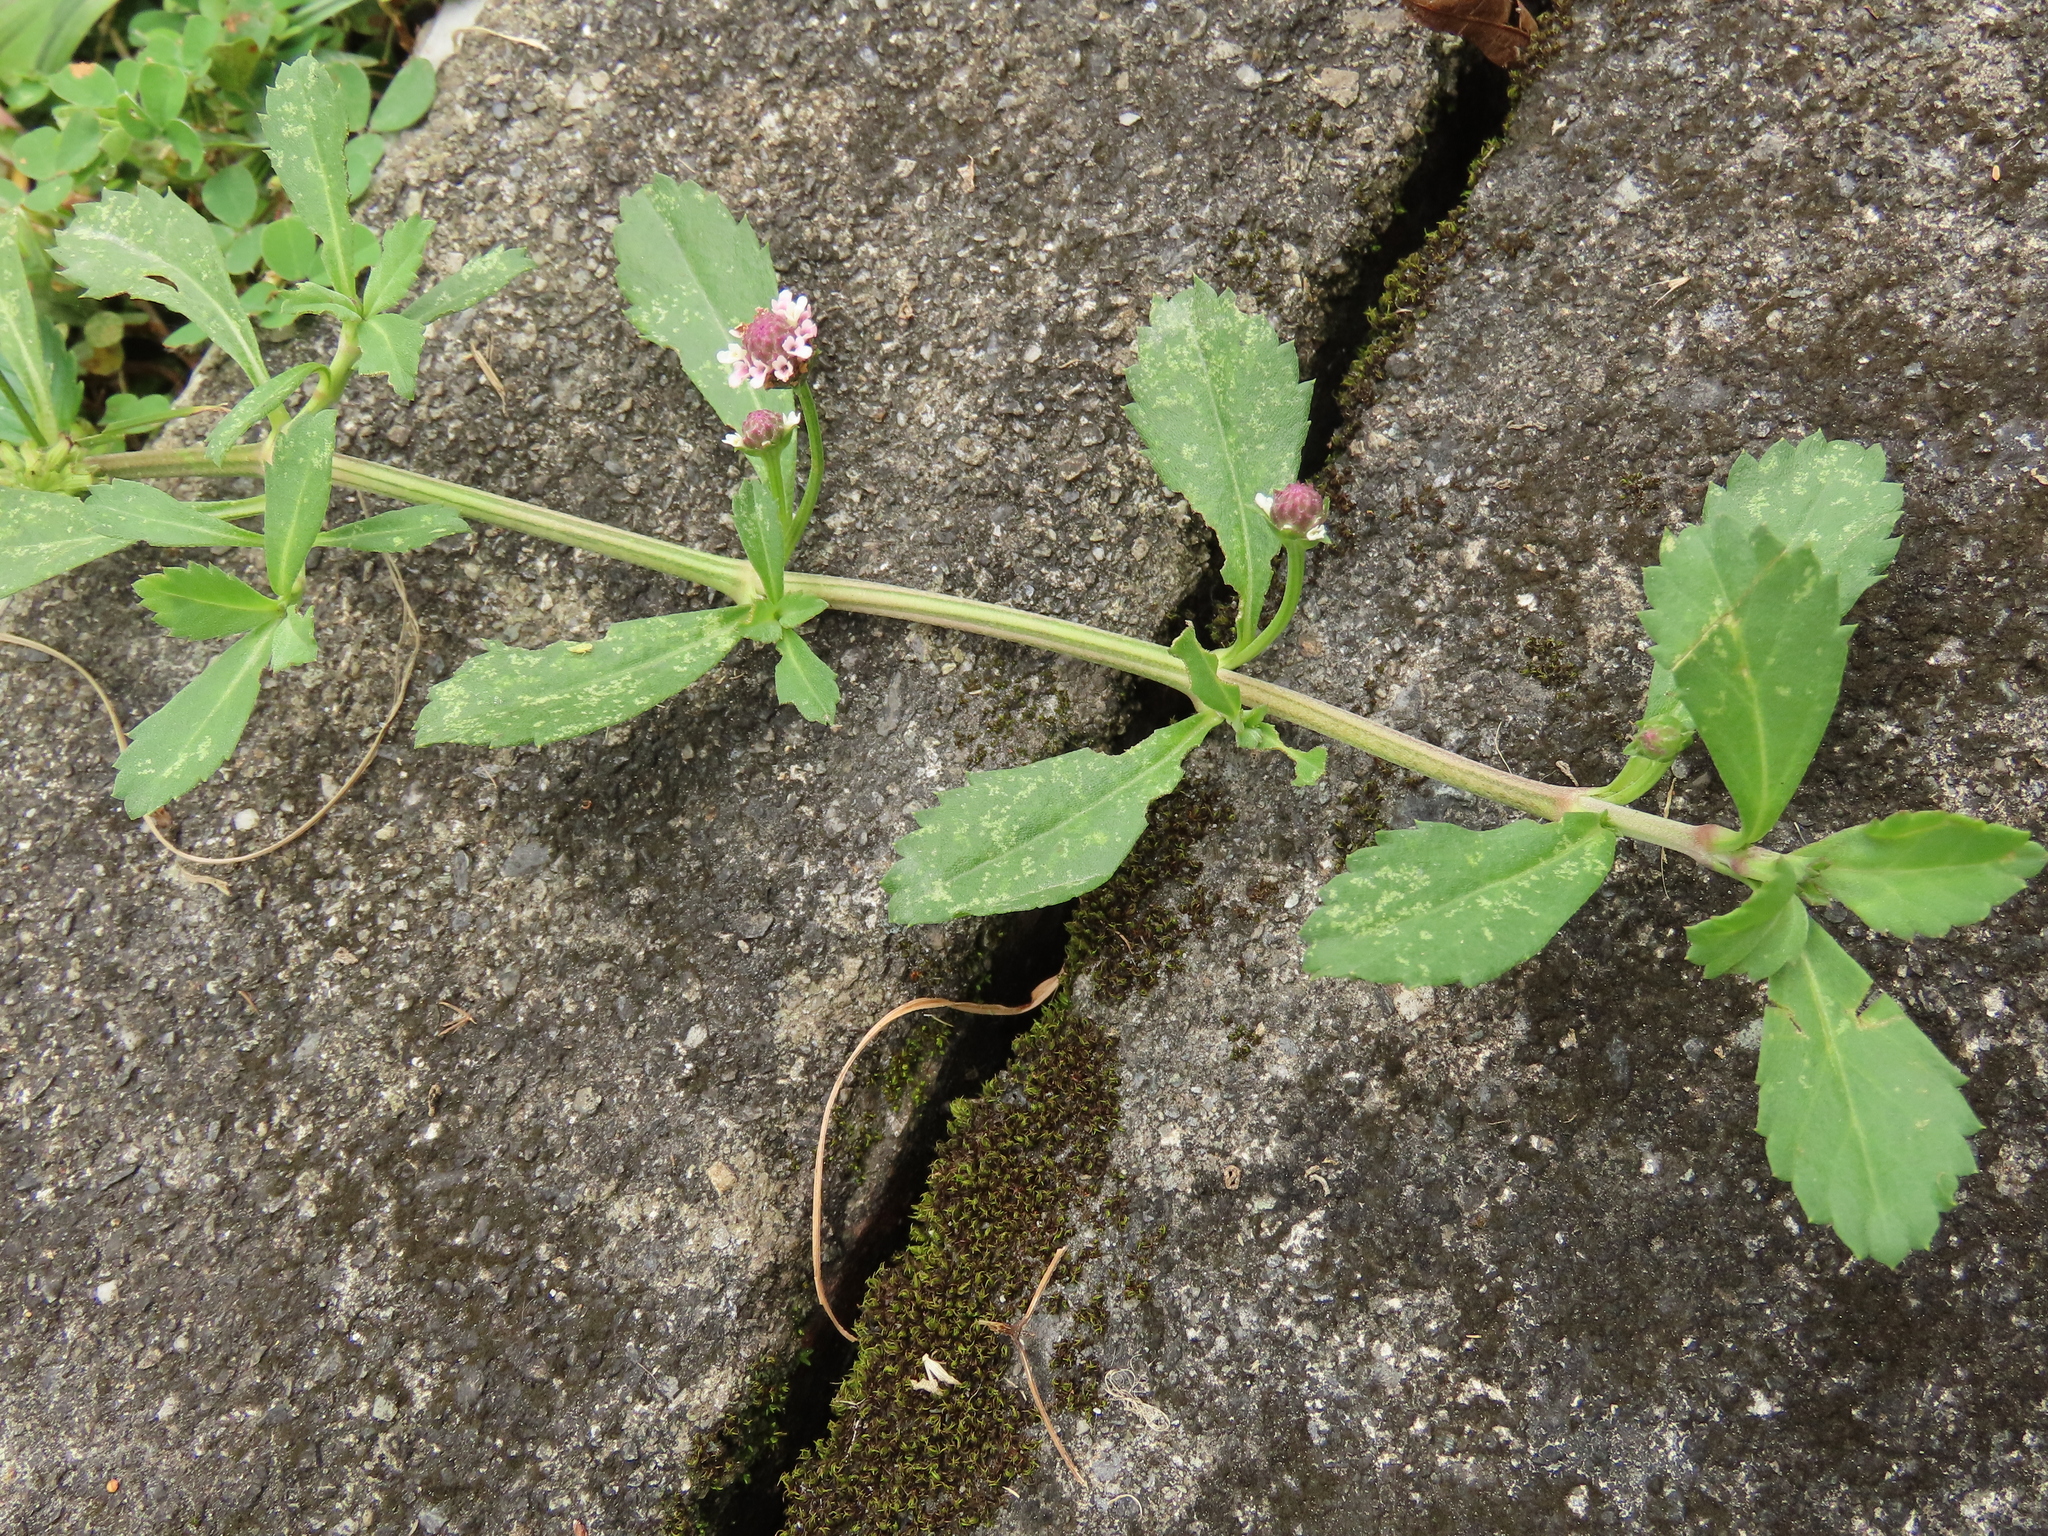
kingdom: Plantae
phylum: Tracheophyta
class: Magnoliopsida
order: Lamiales
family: Verbenaceae
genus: Phyla
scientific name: Phyla nodiflora
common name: Frogfruit
